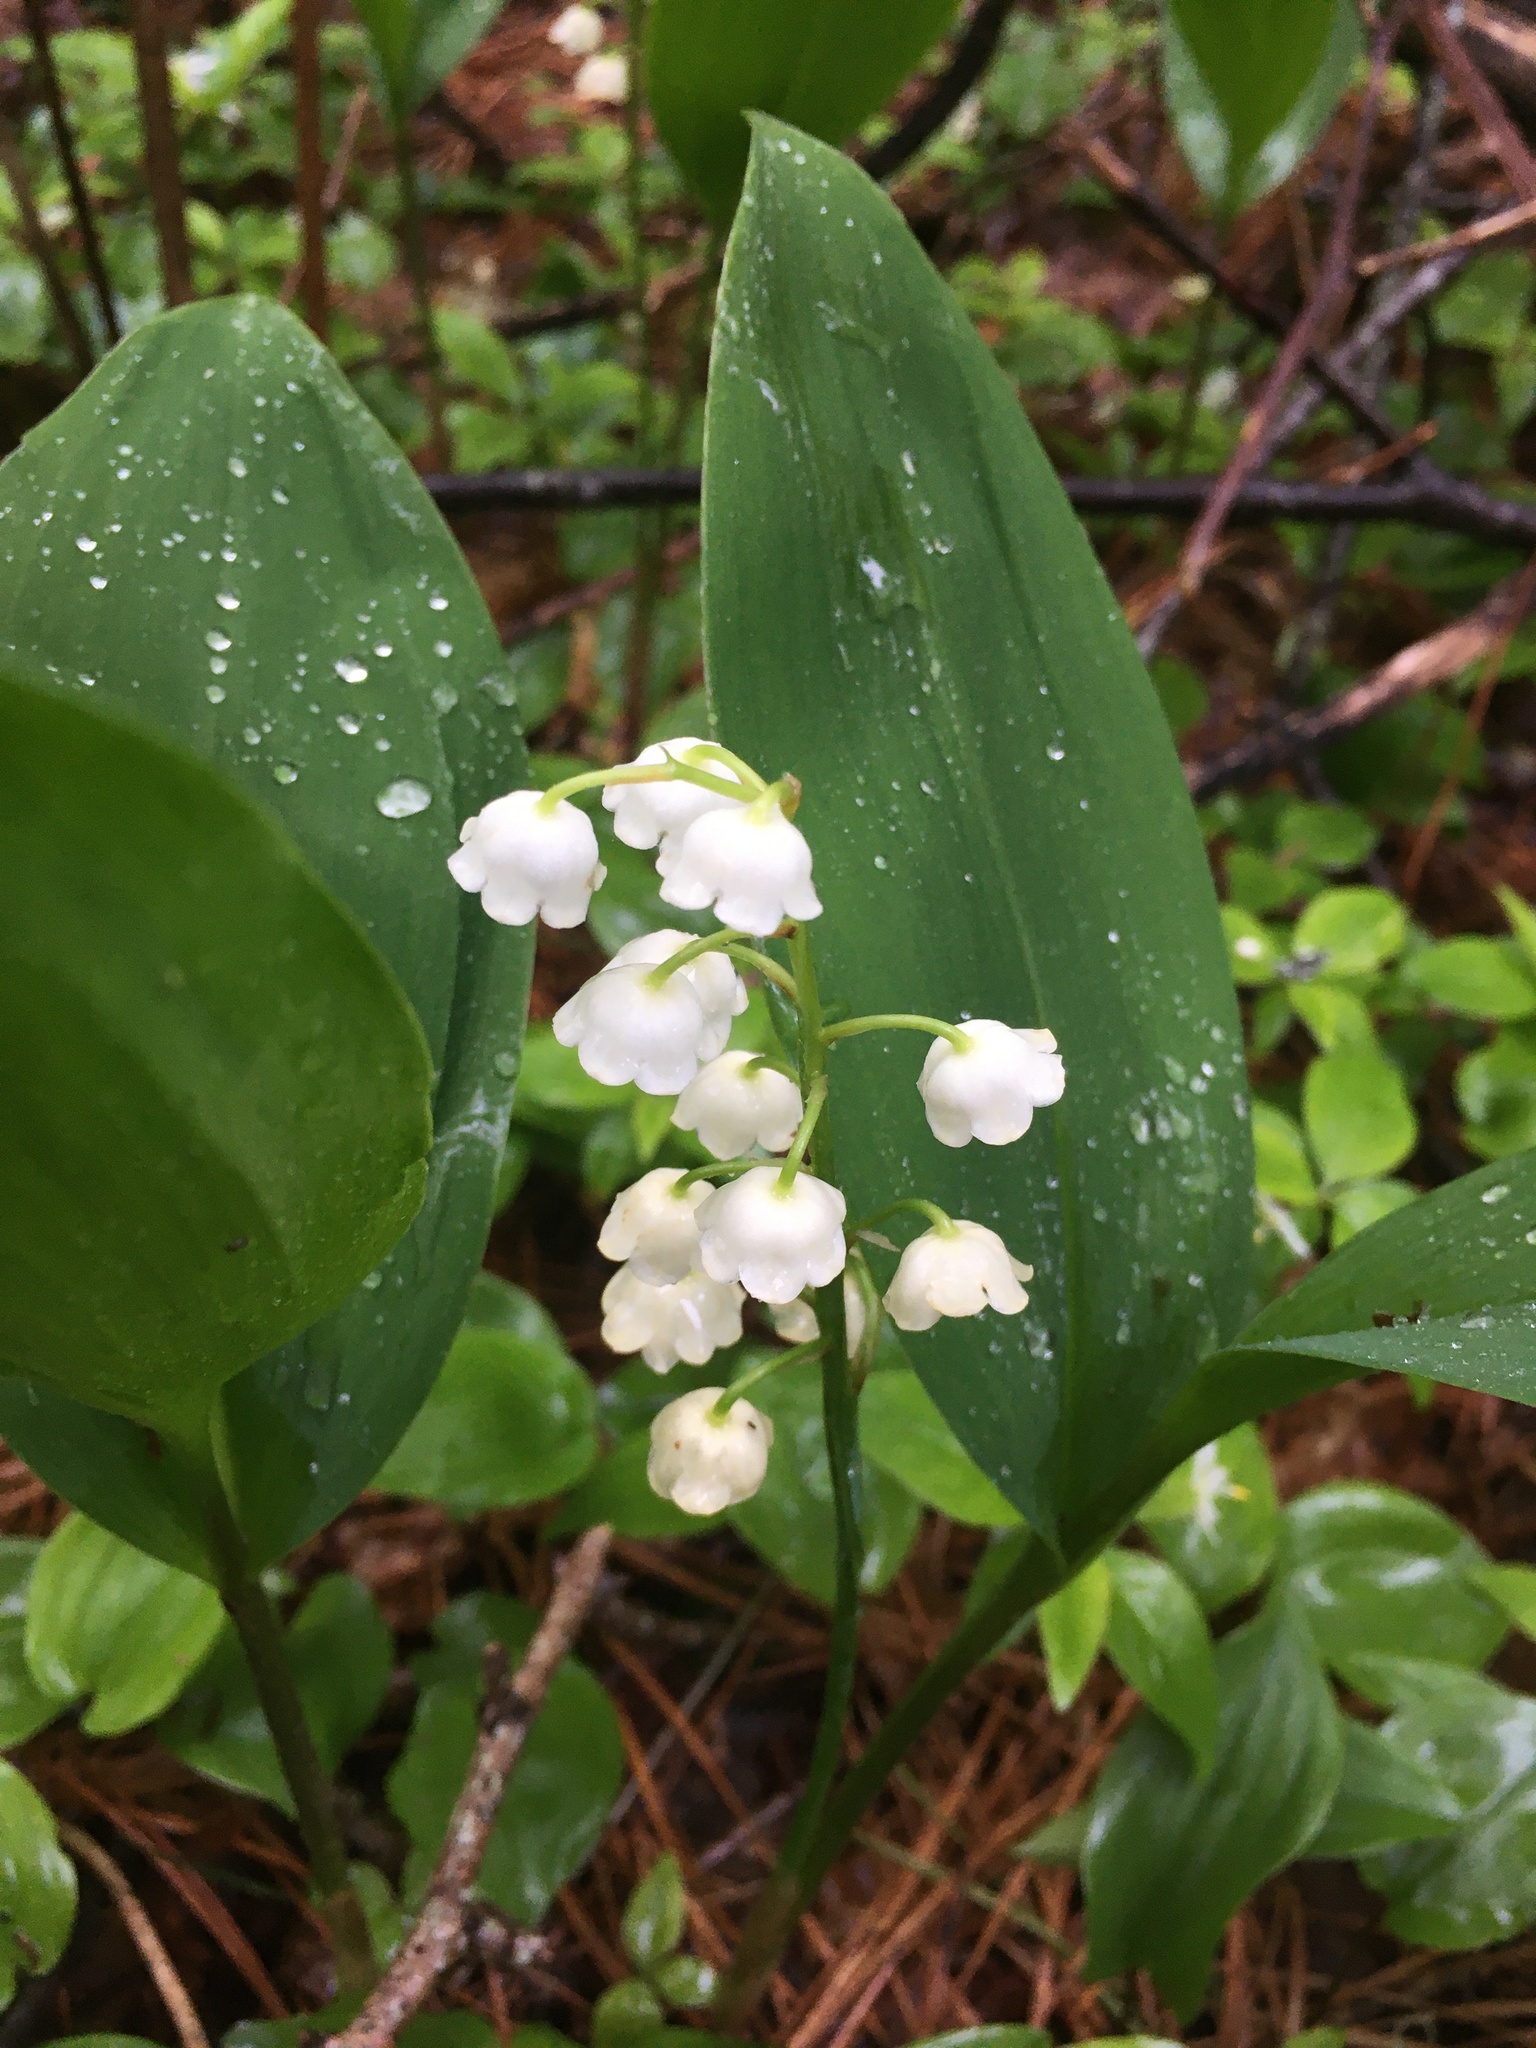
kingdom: Plantae
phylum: Tracheophyta
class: Liliopsida
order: Asparagales
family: Asparagaceae
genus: Convallaria
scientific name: Convallaria majalis
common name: Lily-of-the-valley
